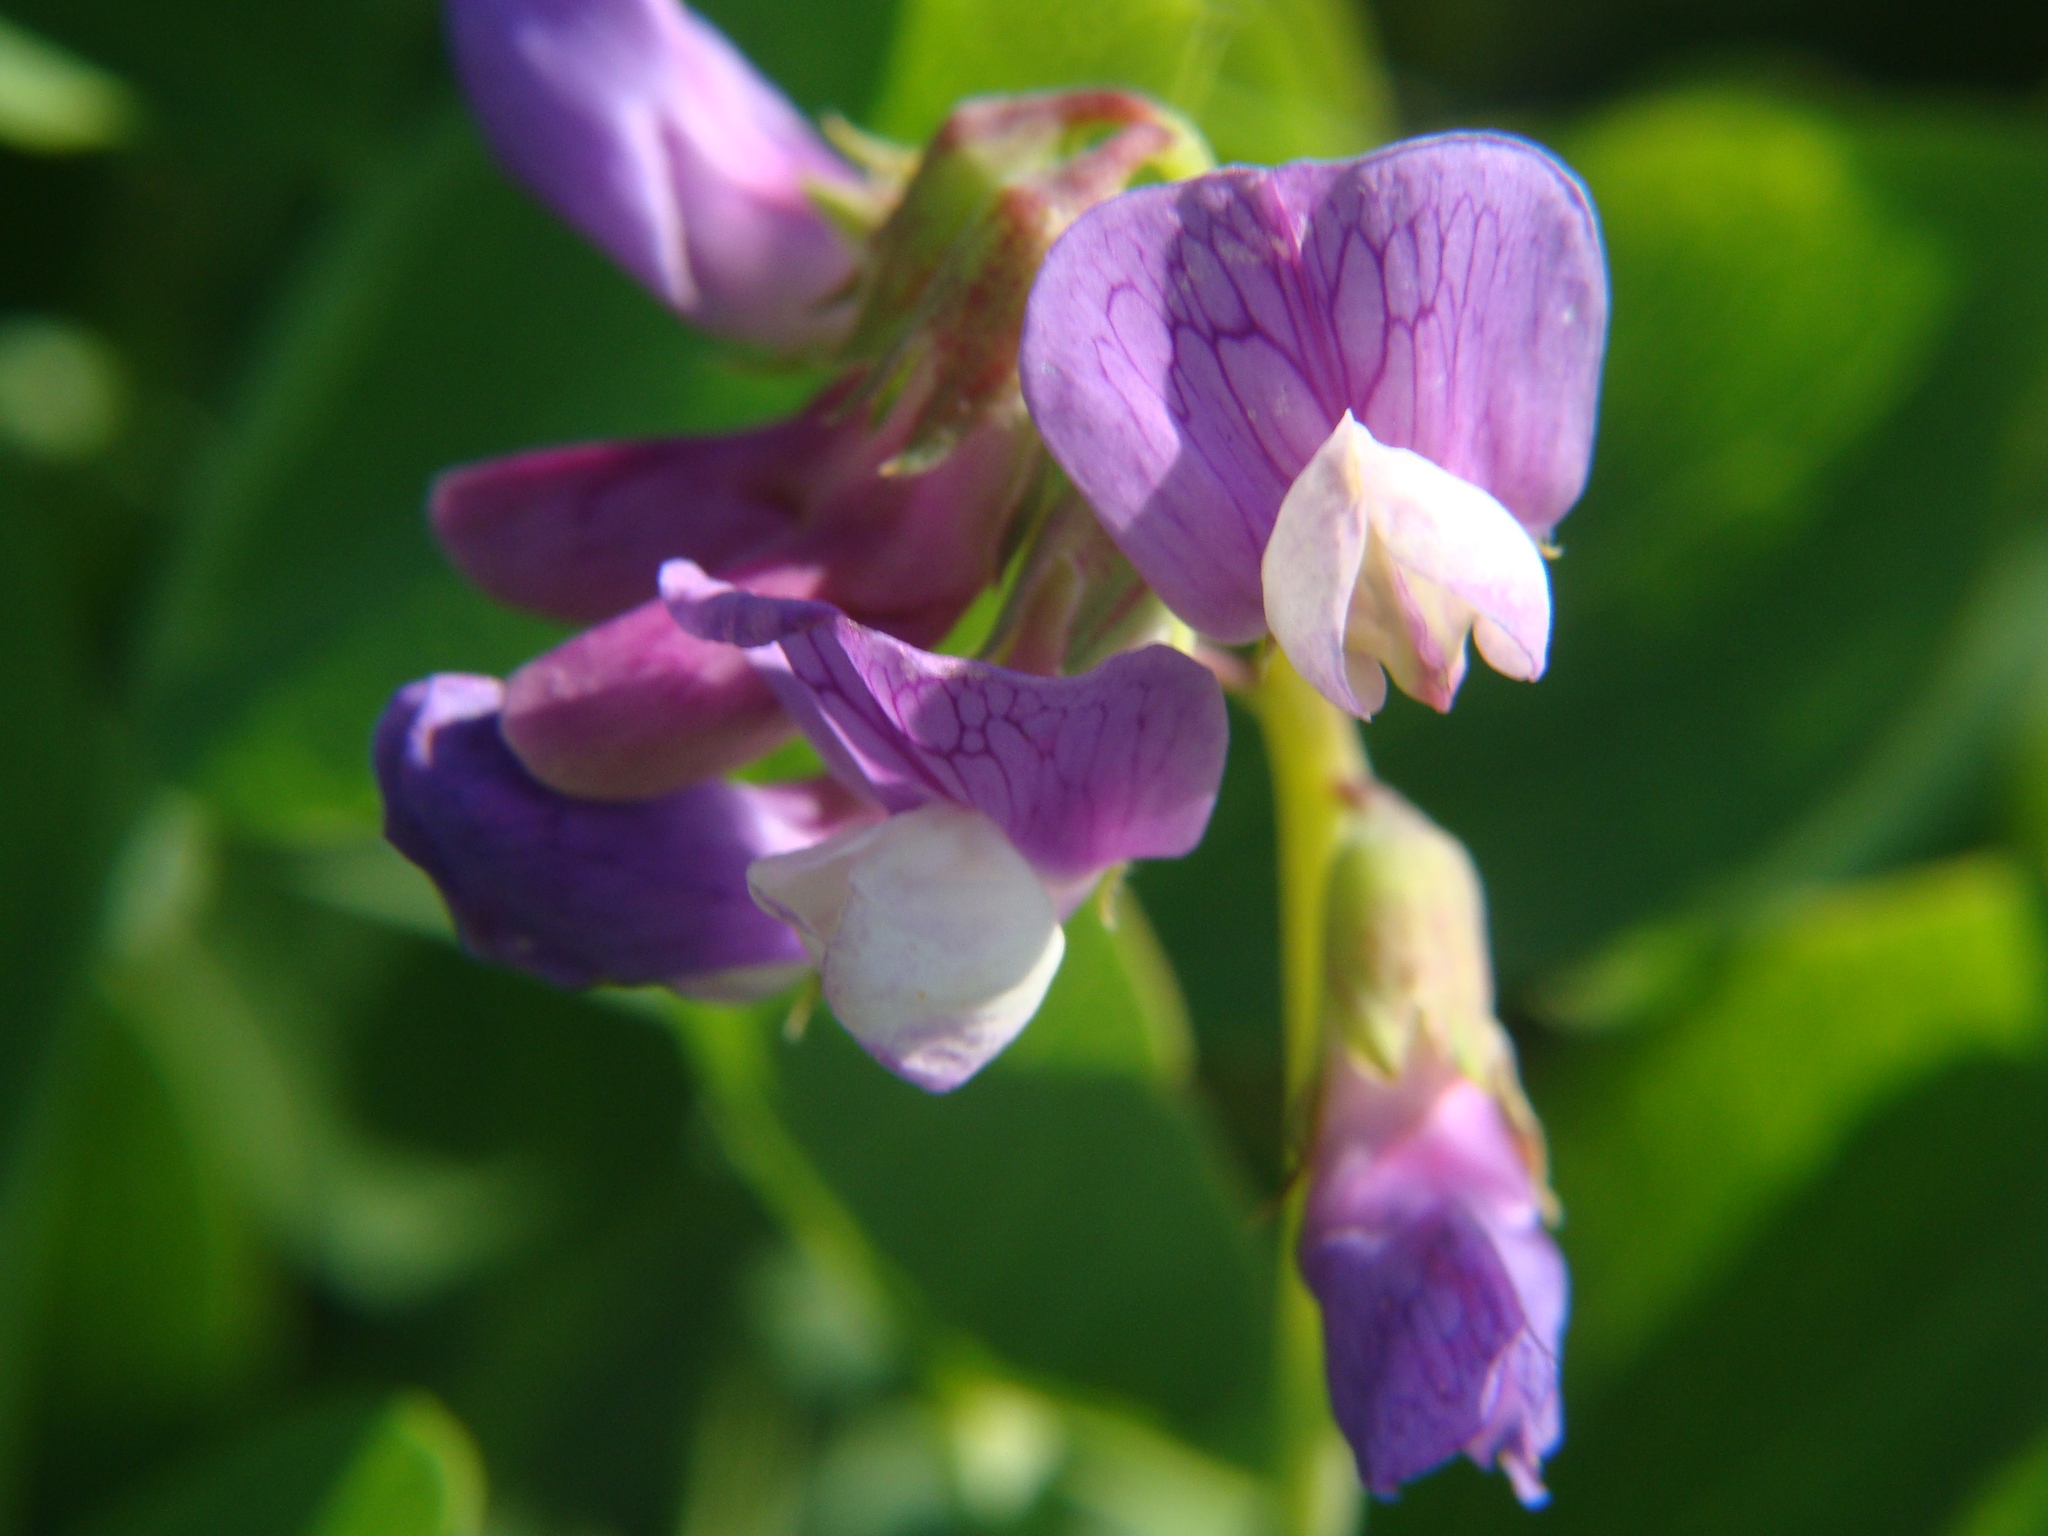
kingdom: Plantae
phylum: Tracheophyta
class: Magnoliopsida
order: Fabales
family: Fabaceae
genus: Lathyrus
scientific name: Lathyrus japonicus
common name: Sea pea
